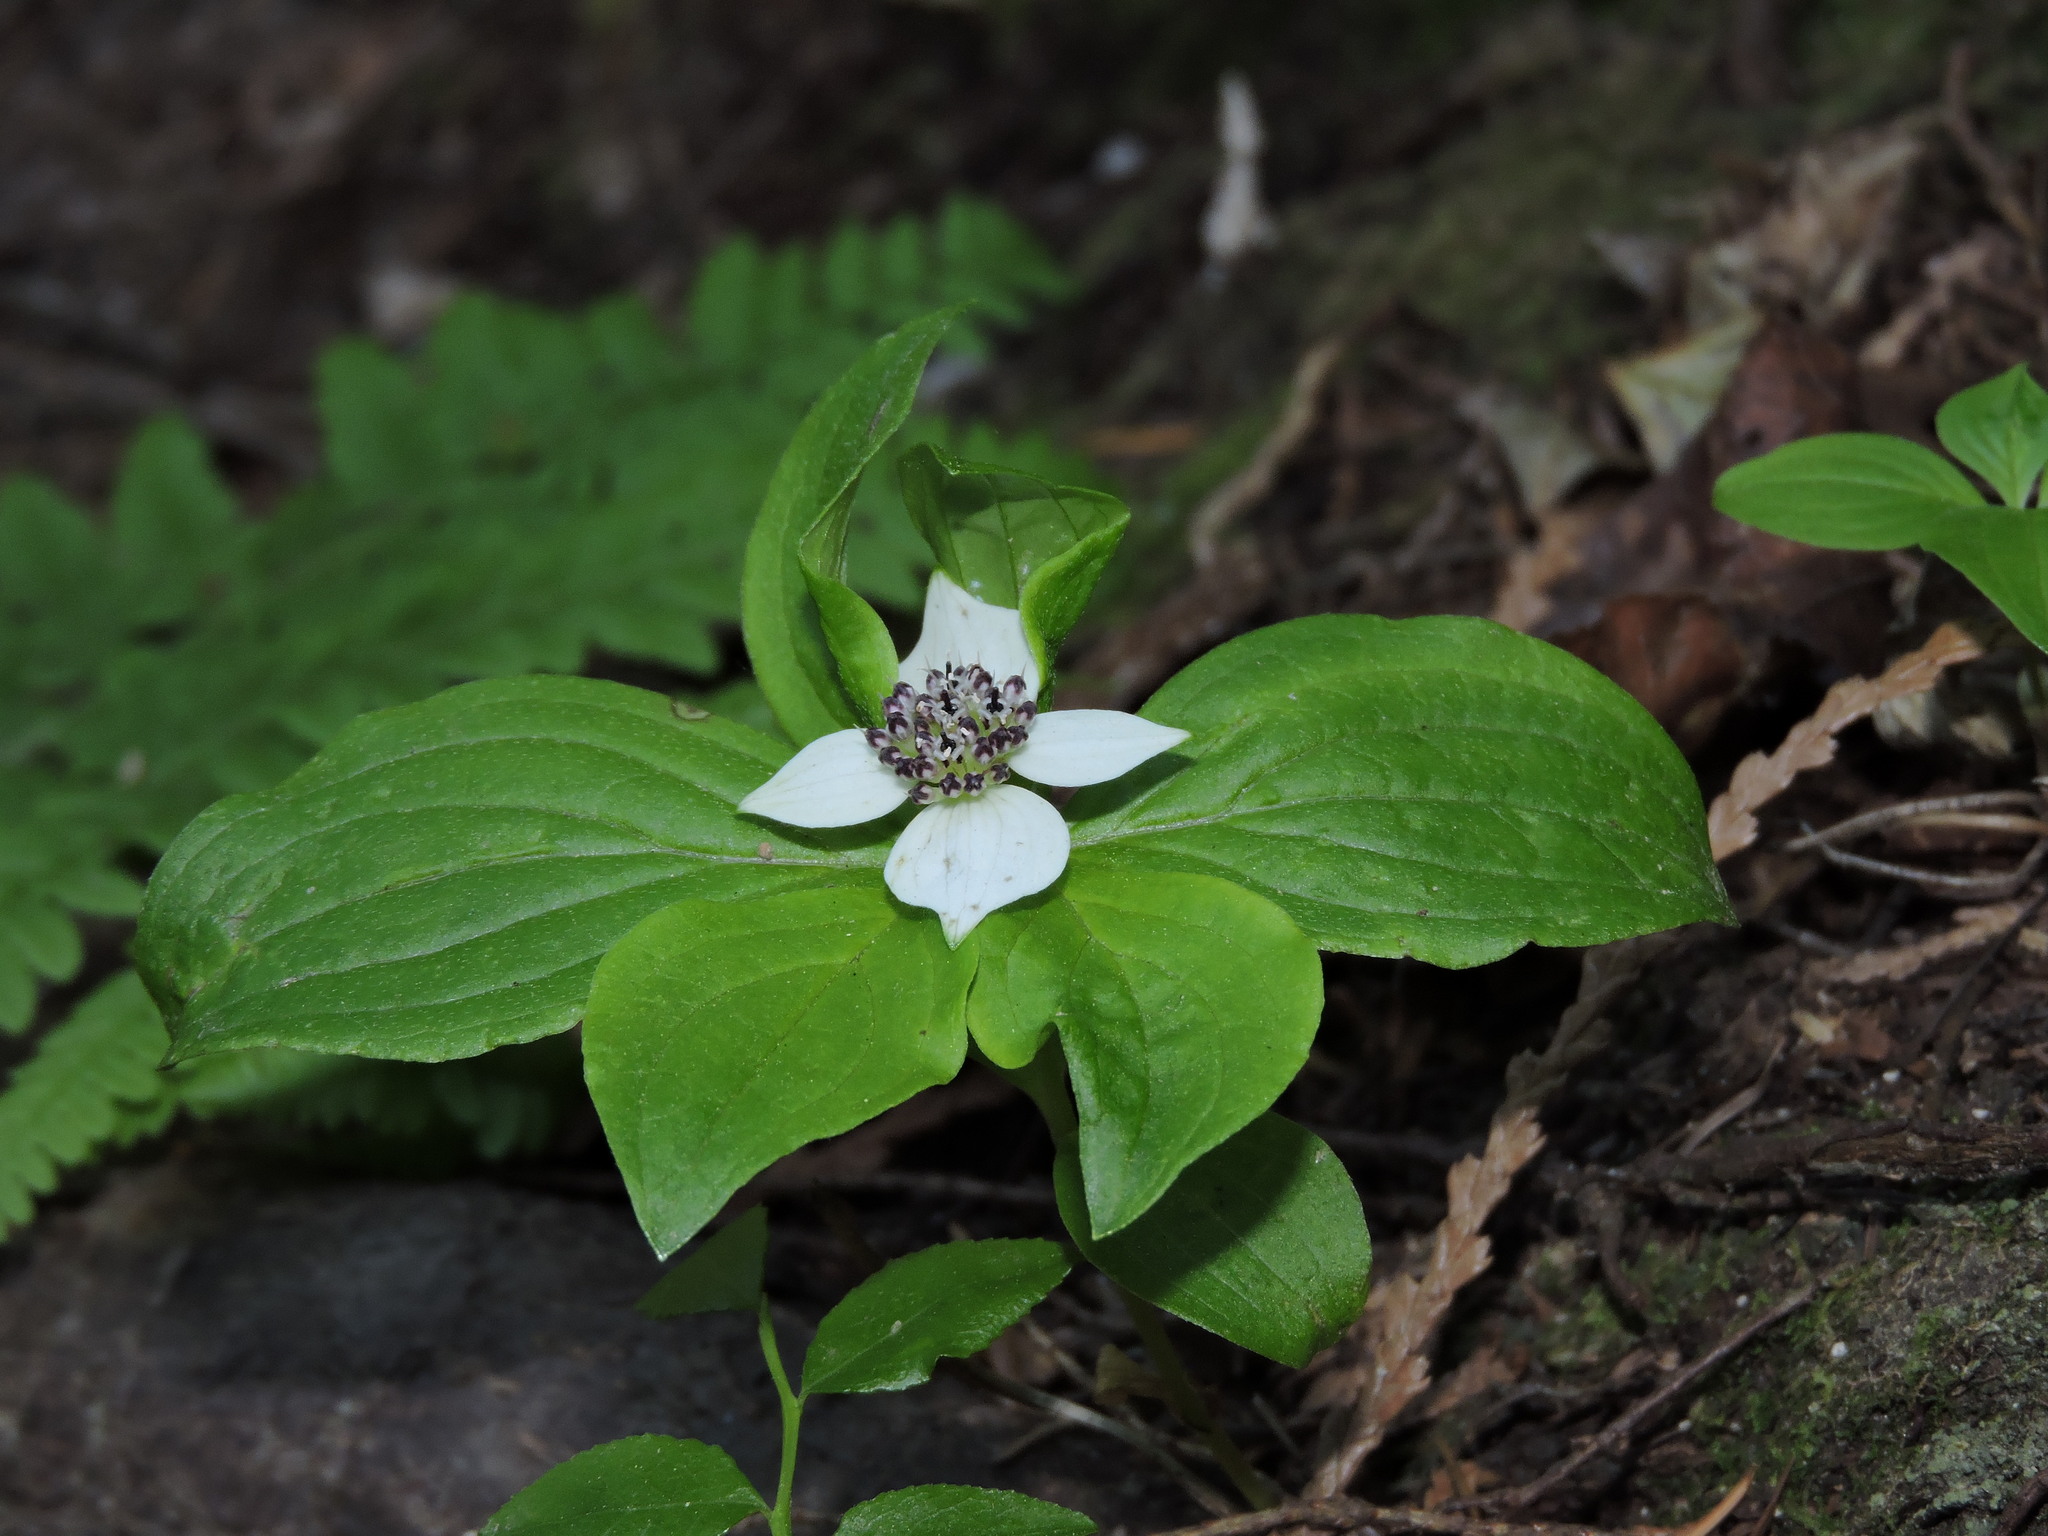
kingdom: Plantae
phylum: Tracheophyta
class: Magnoliopsida
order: Cornales
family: Cornaceae
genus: Cornus
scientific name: Cornus unalaschkensis
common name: Alaska bunchberry
